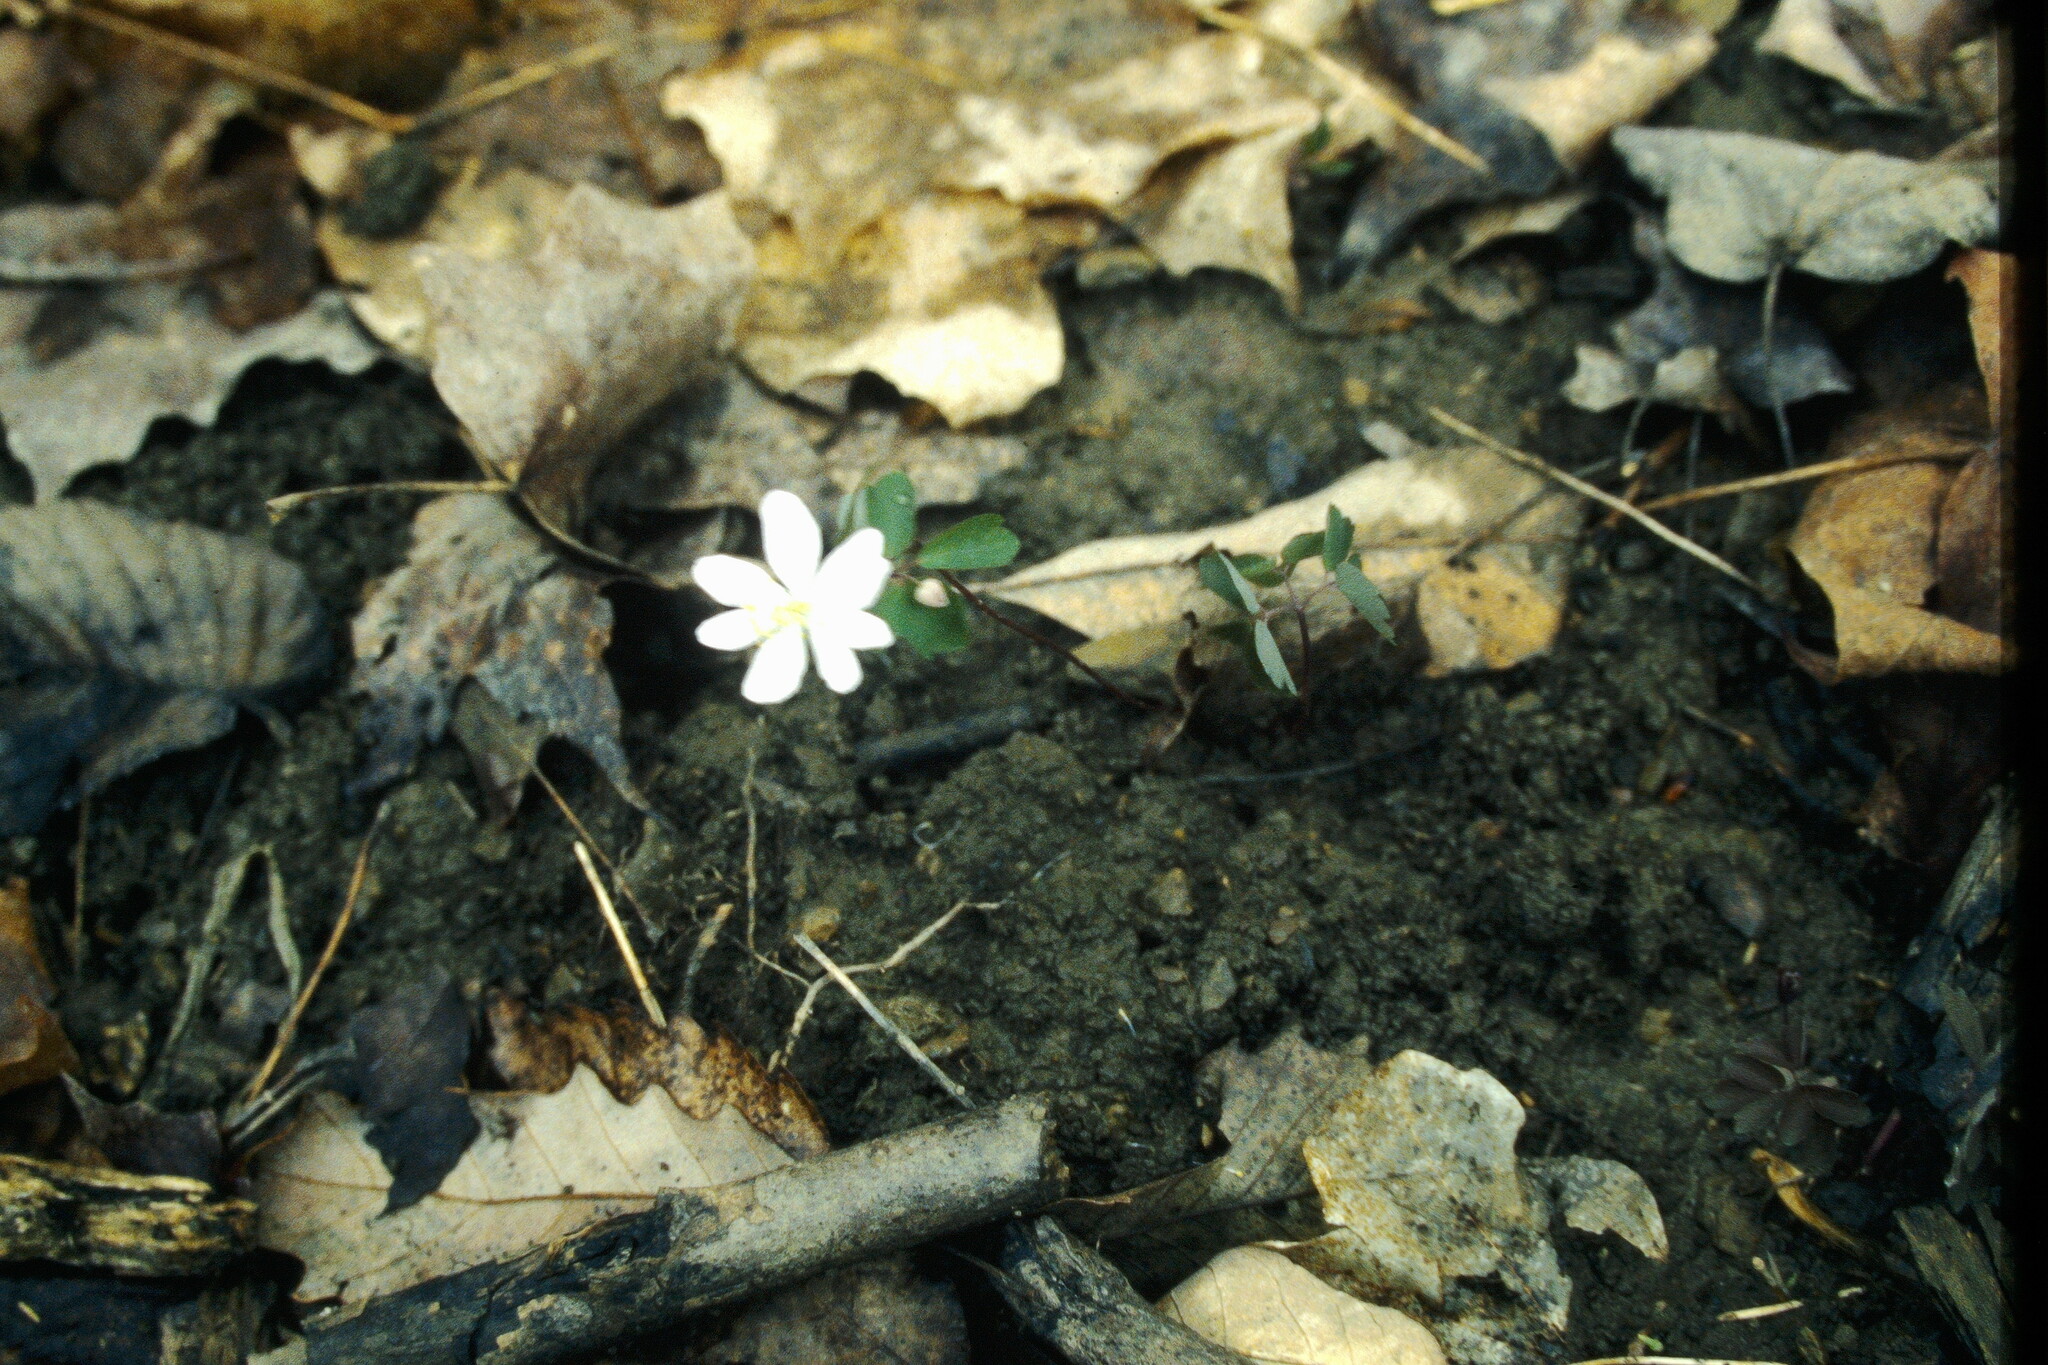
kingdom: Plantae
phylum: Tracheophyta
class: Magnoliopsida
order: Ranunculales
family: Ranunculaceae
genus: Thalictrum
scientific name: Thalictrum thalictroides
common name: Rue-anemone
